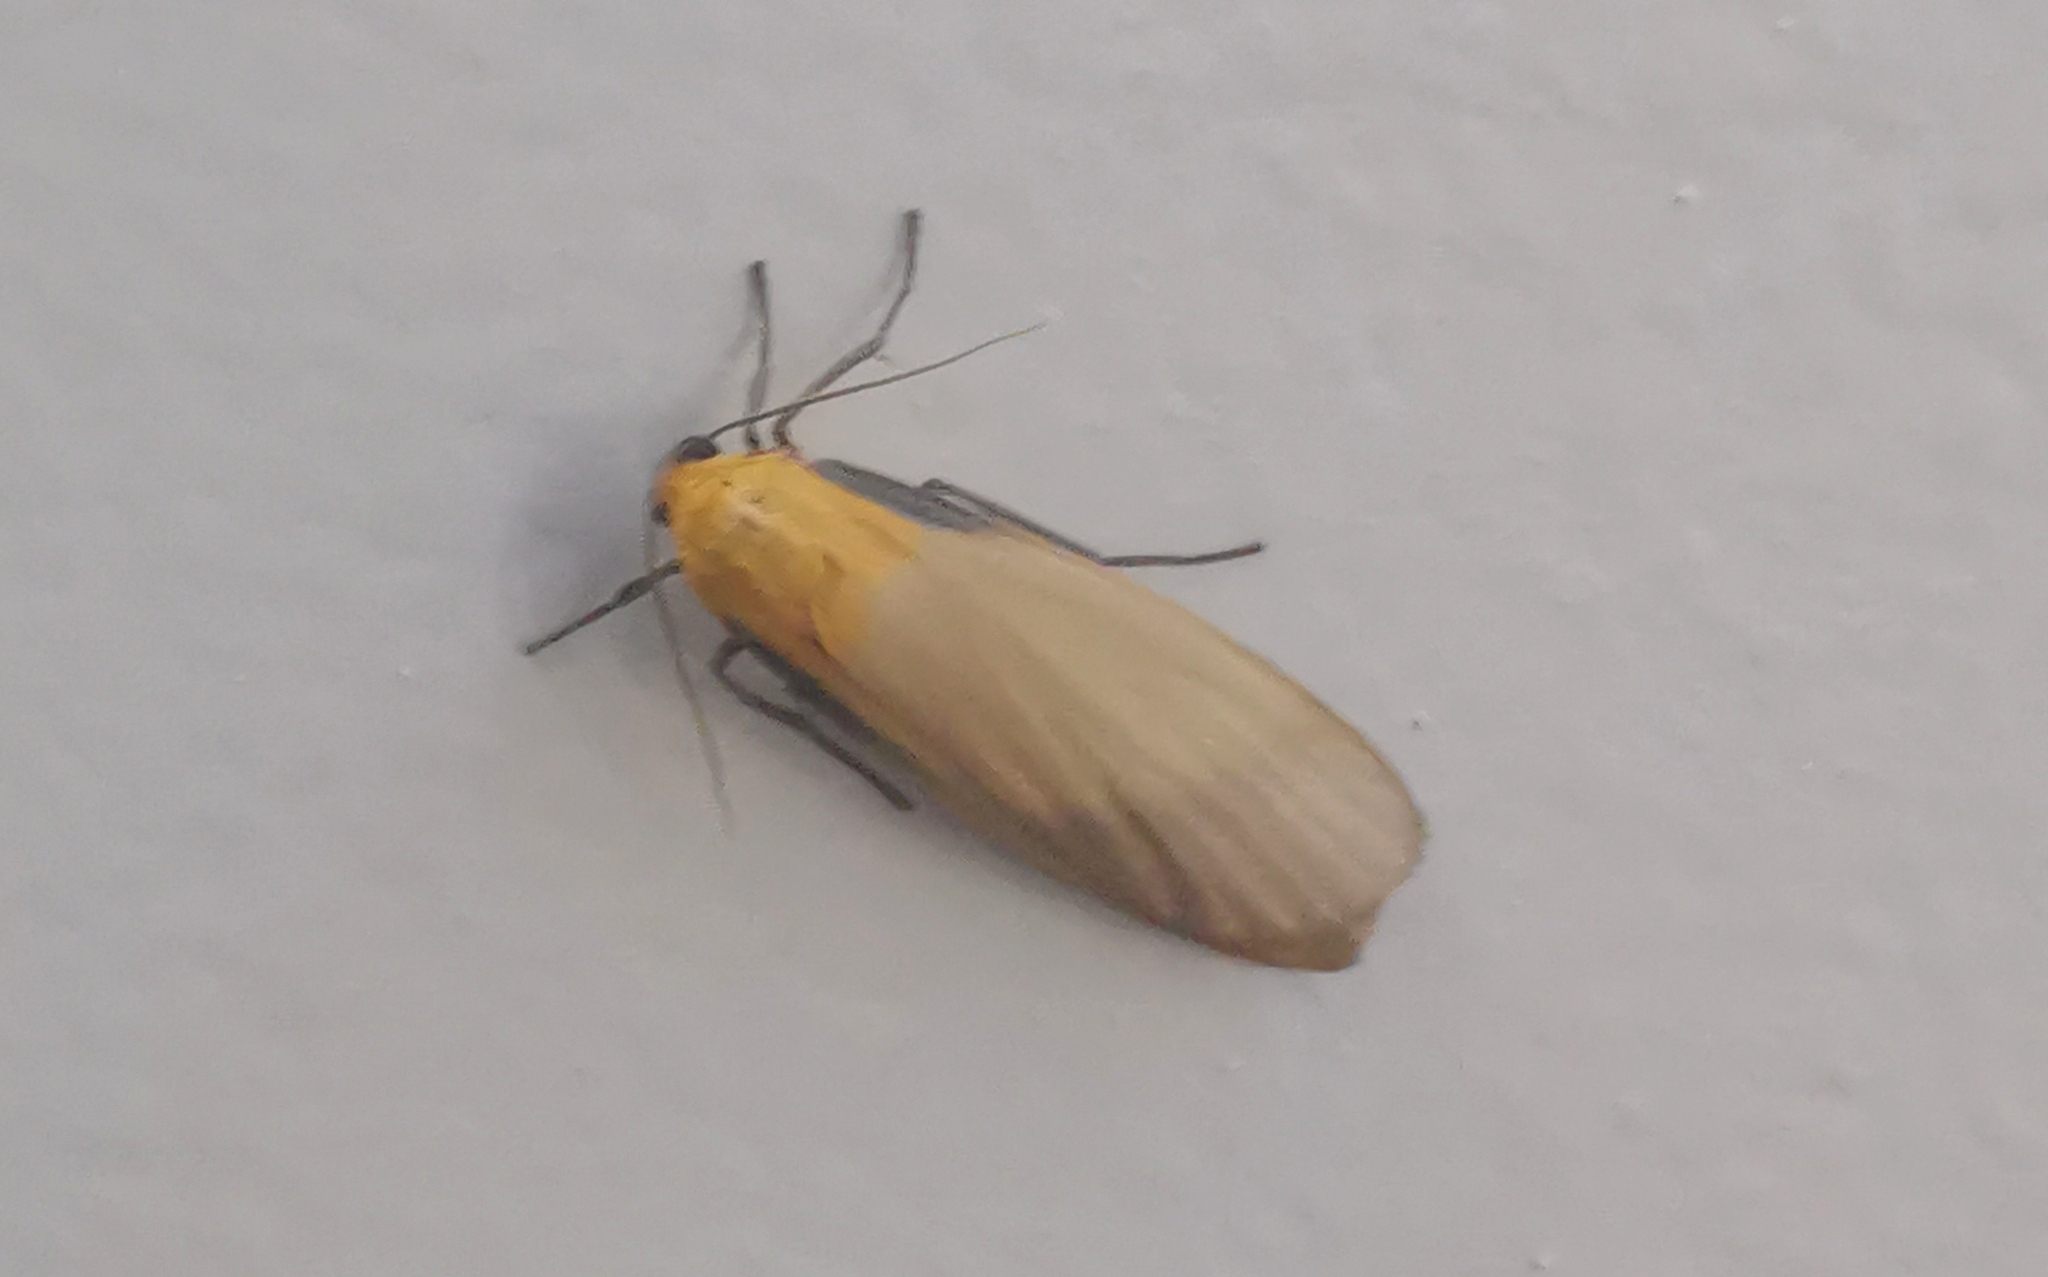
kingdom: Animalia
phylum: Arthropoda
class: Insecta
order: Lepidoptera
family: Erebidae
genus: Lithosia
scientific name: Lithosia quadra
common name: Four-spotted footman
